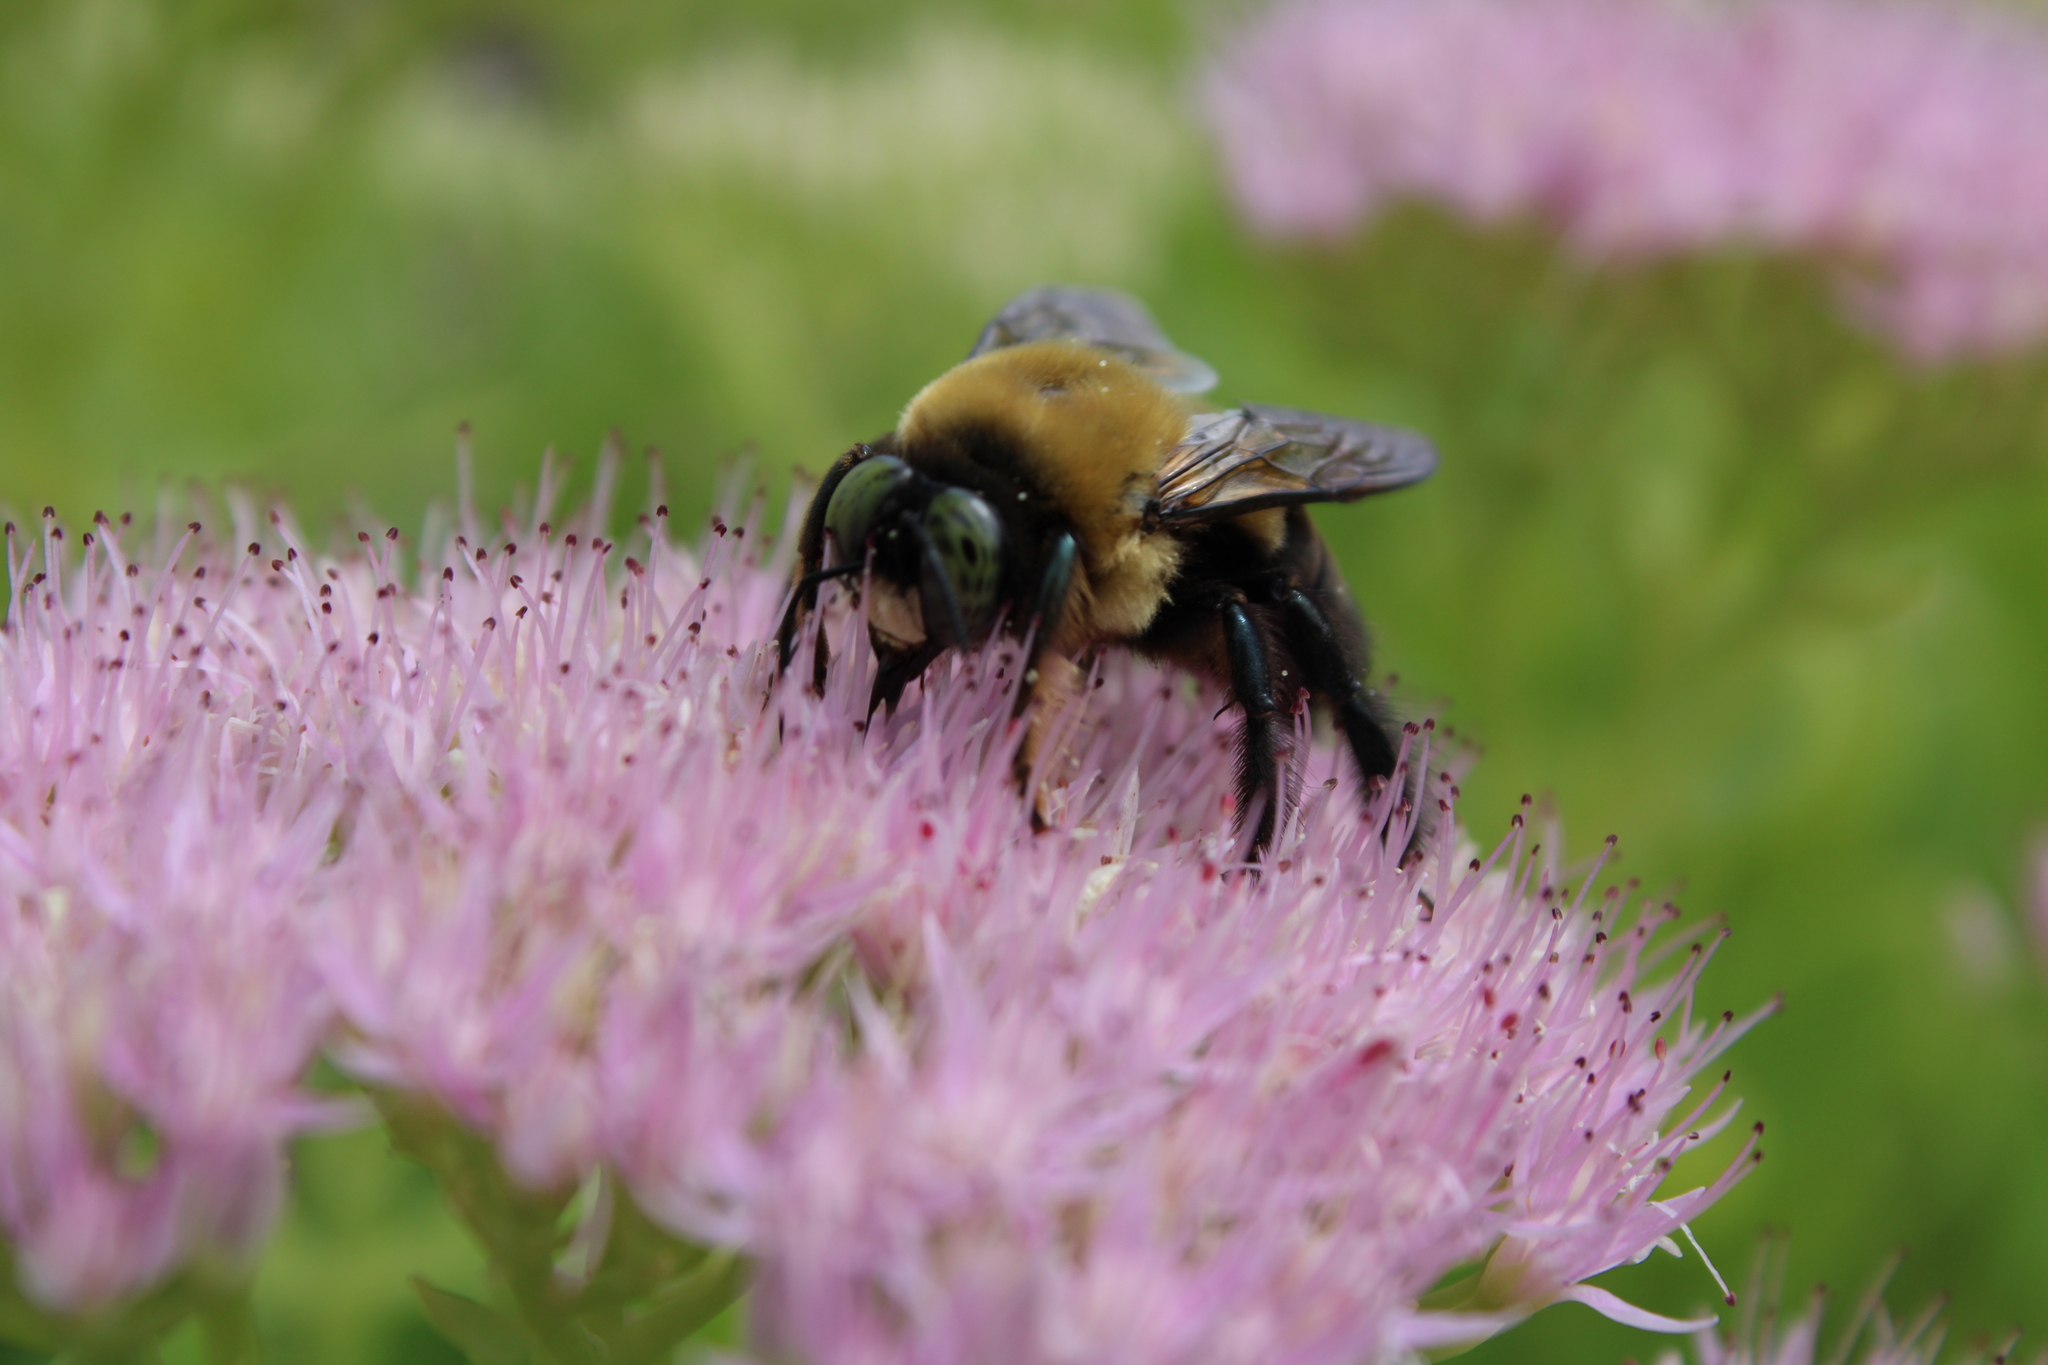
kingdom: Animalia
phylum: Arthropoda
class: Insecta
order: Hymenoptera
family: Apidae
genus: Xylocopa
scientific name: Xylocopa virginica
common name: Carpenter bee
